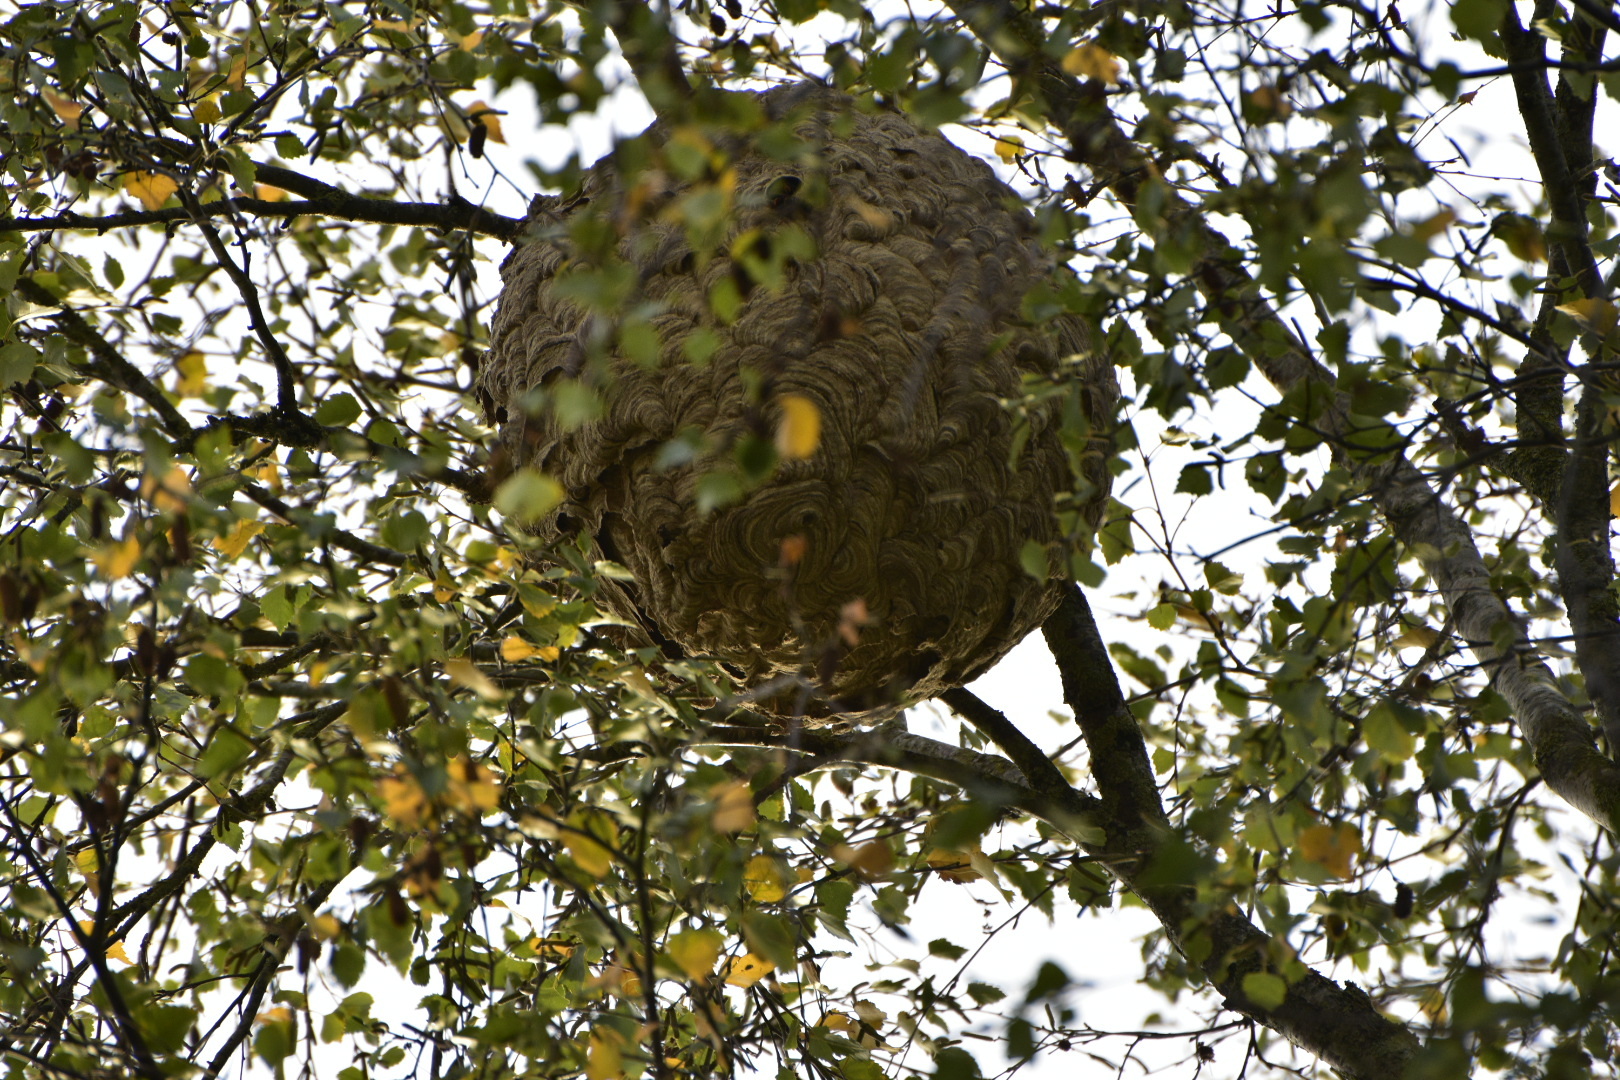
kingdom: Animalia
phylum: Arthropoda
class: Insecta
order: Hymenoptera
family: Vespidae
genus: Vespa
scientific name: Vespa velutina
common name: Asian hornet
